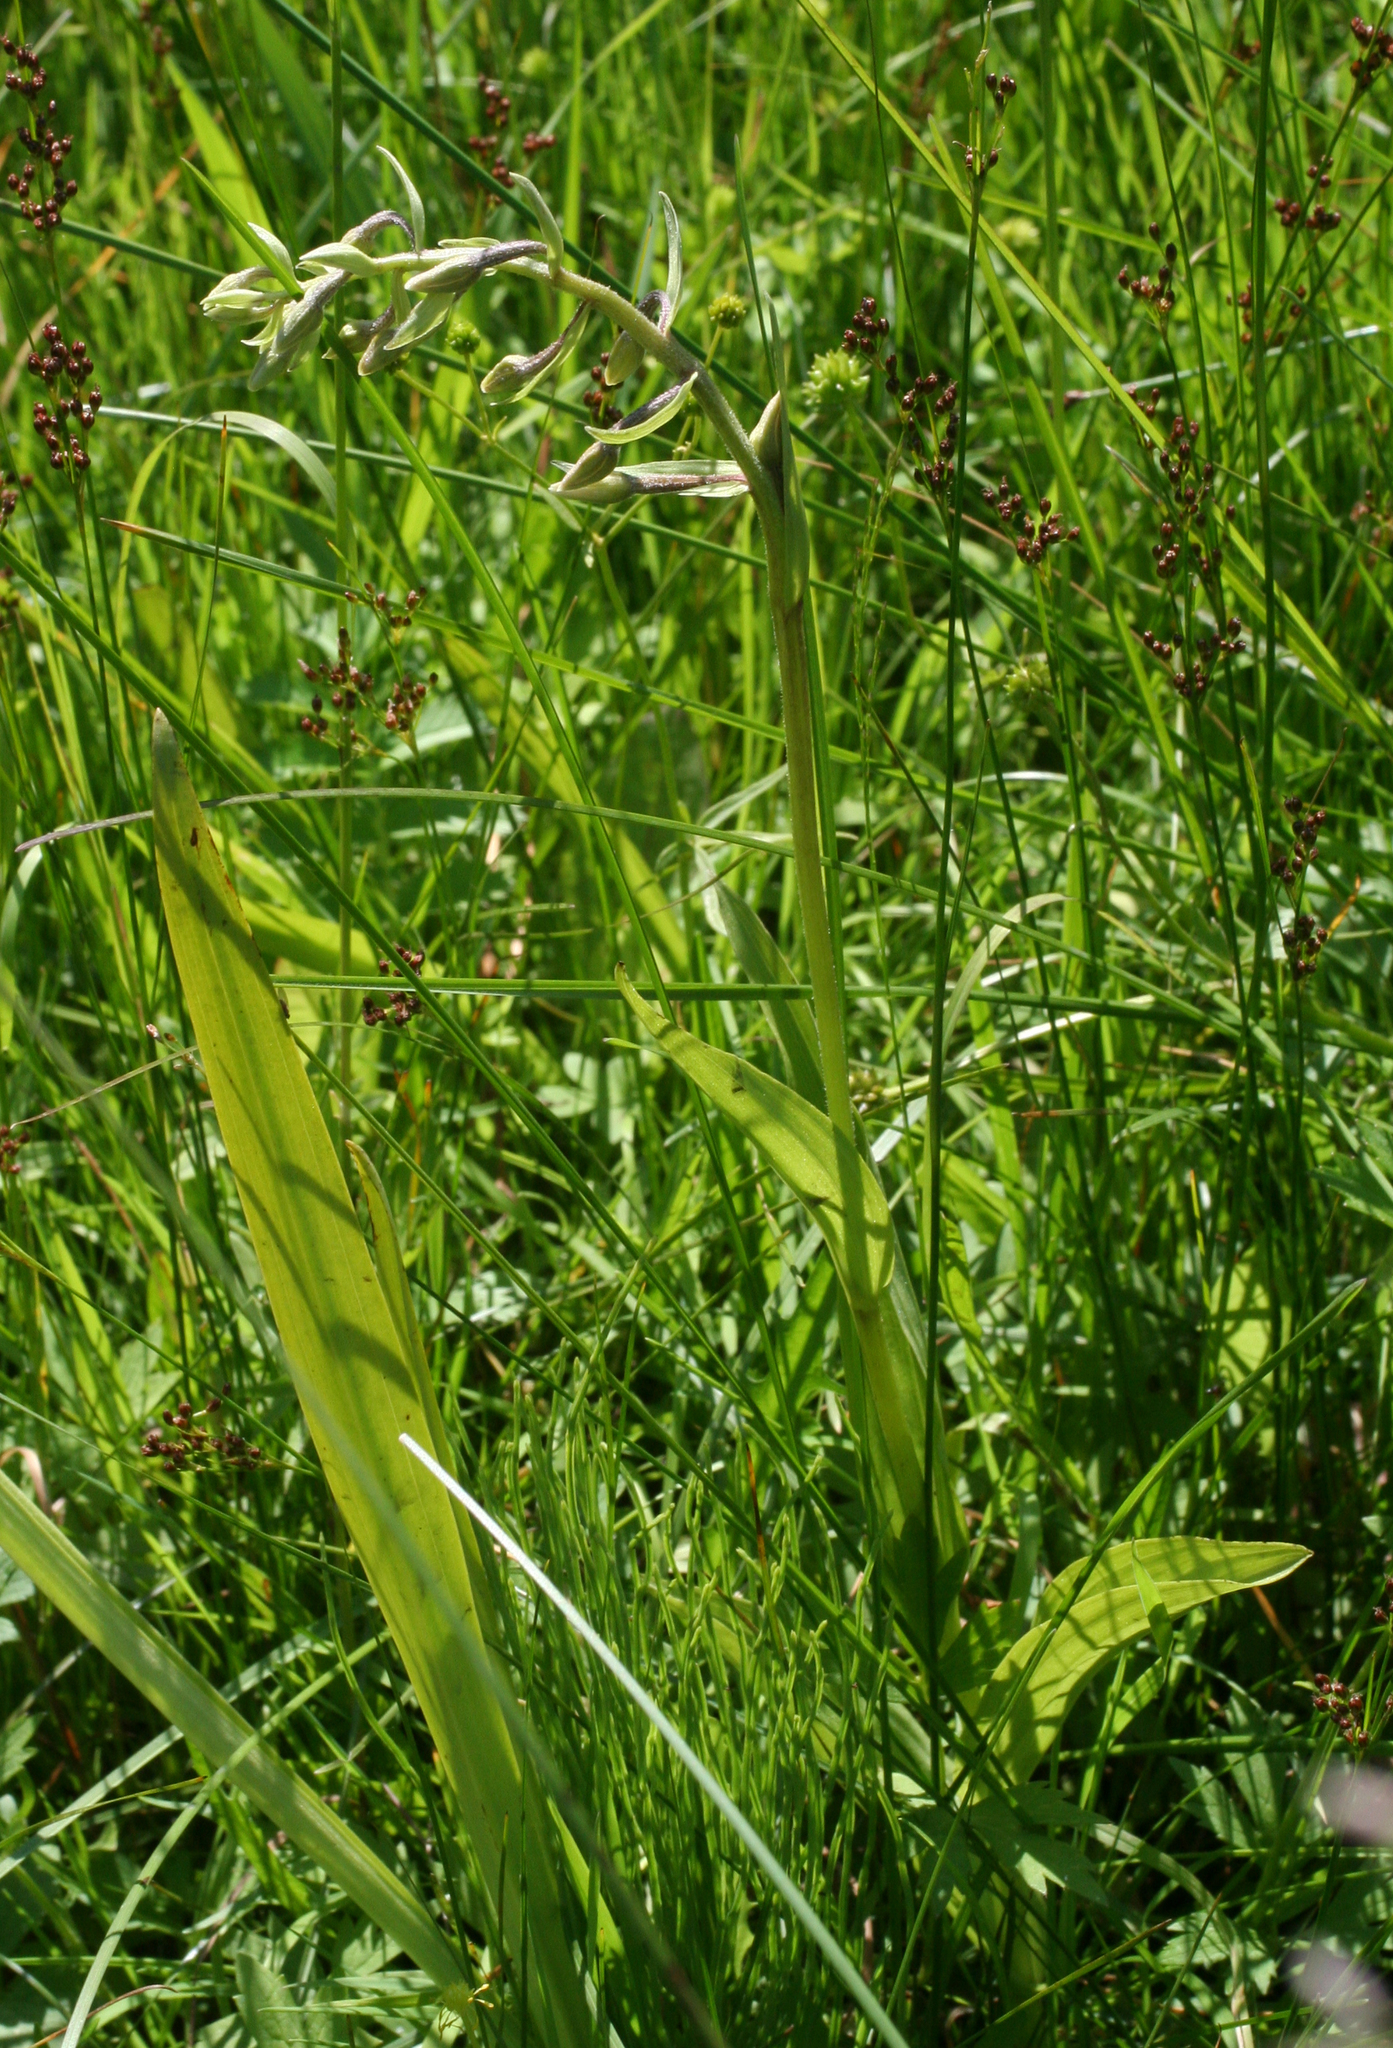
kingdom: Plantae
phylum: Tracheophyta
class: Liliopsida
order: Asparagales
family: Orchidaceae
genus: Epipactis
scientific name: Epipactis palustris
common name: Marsh helleborine
